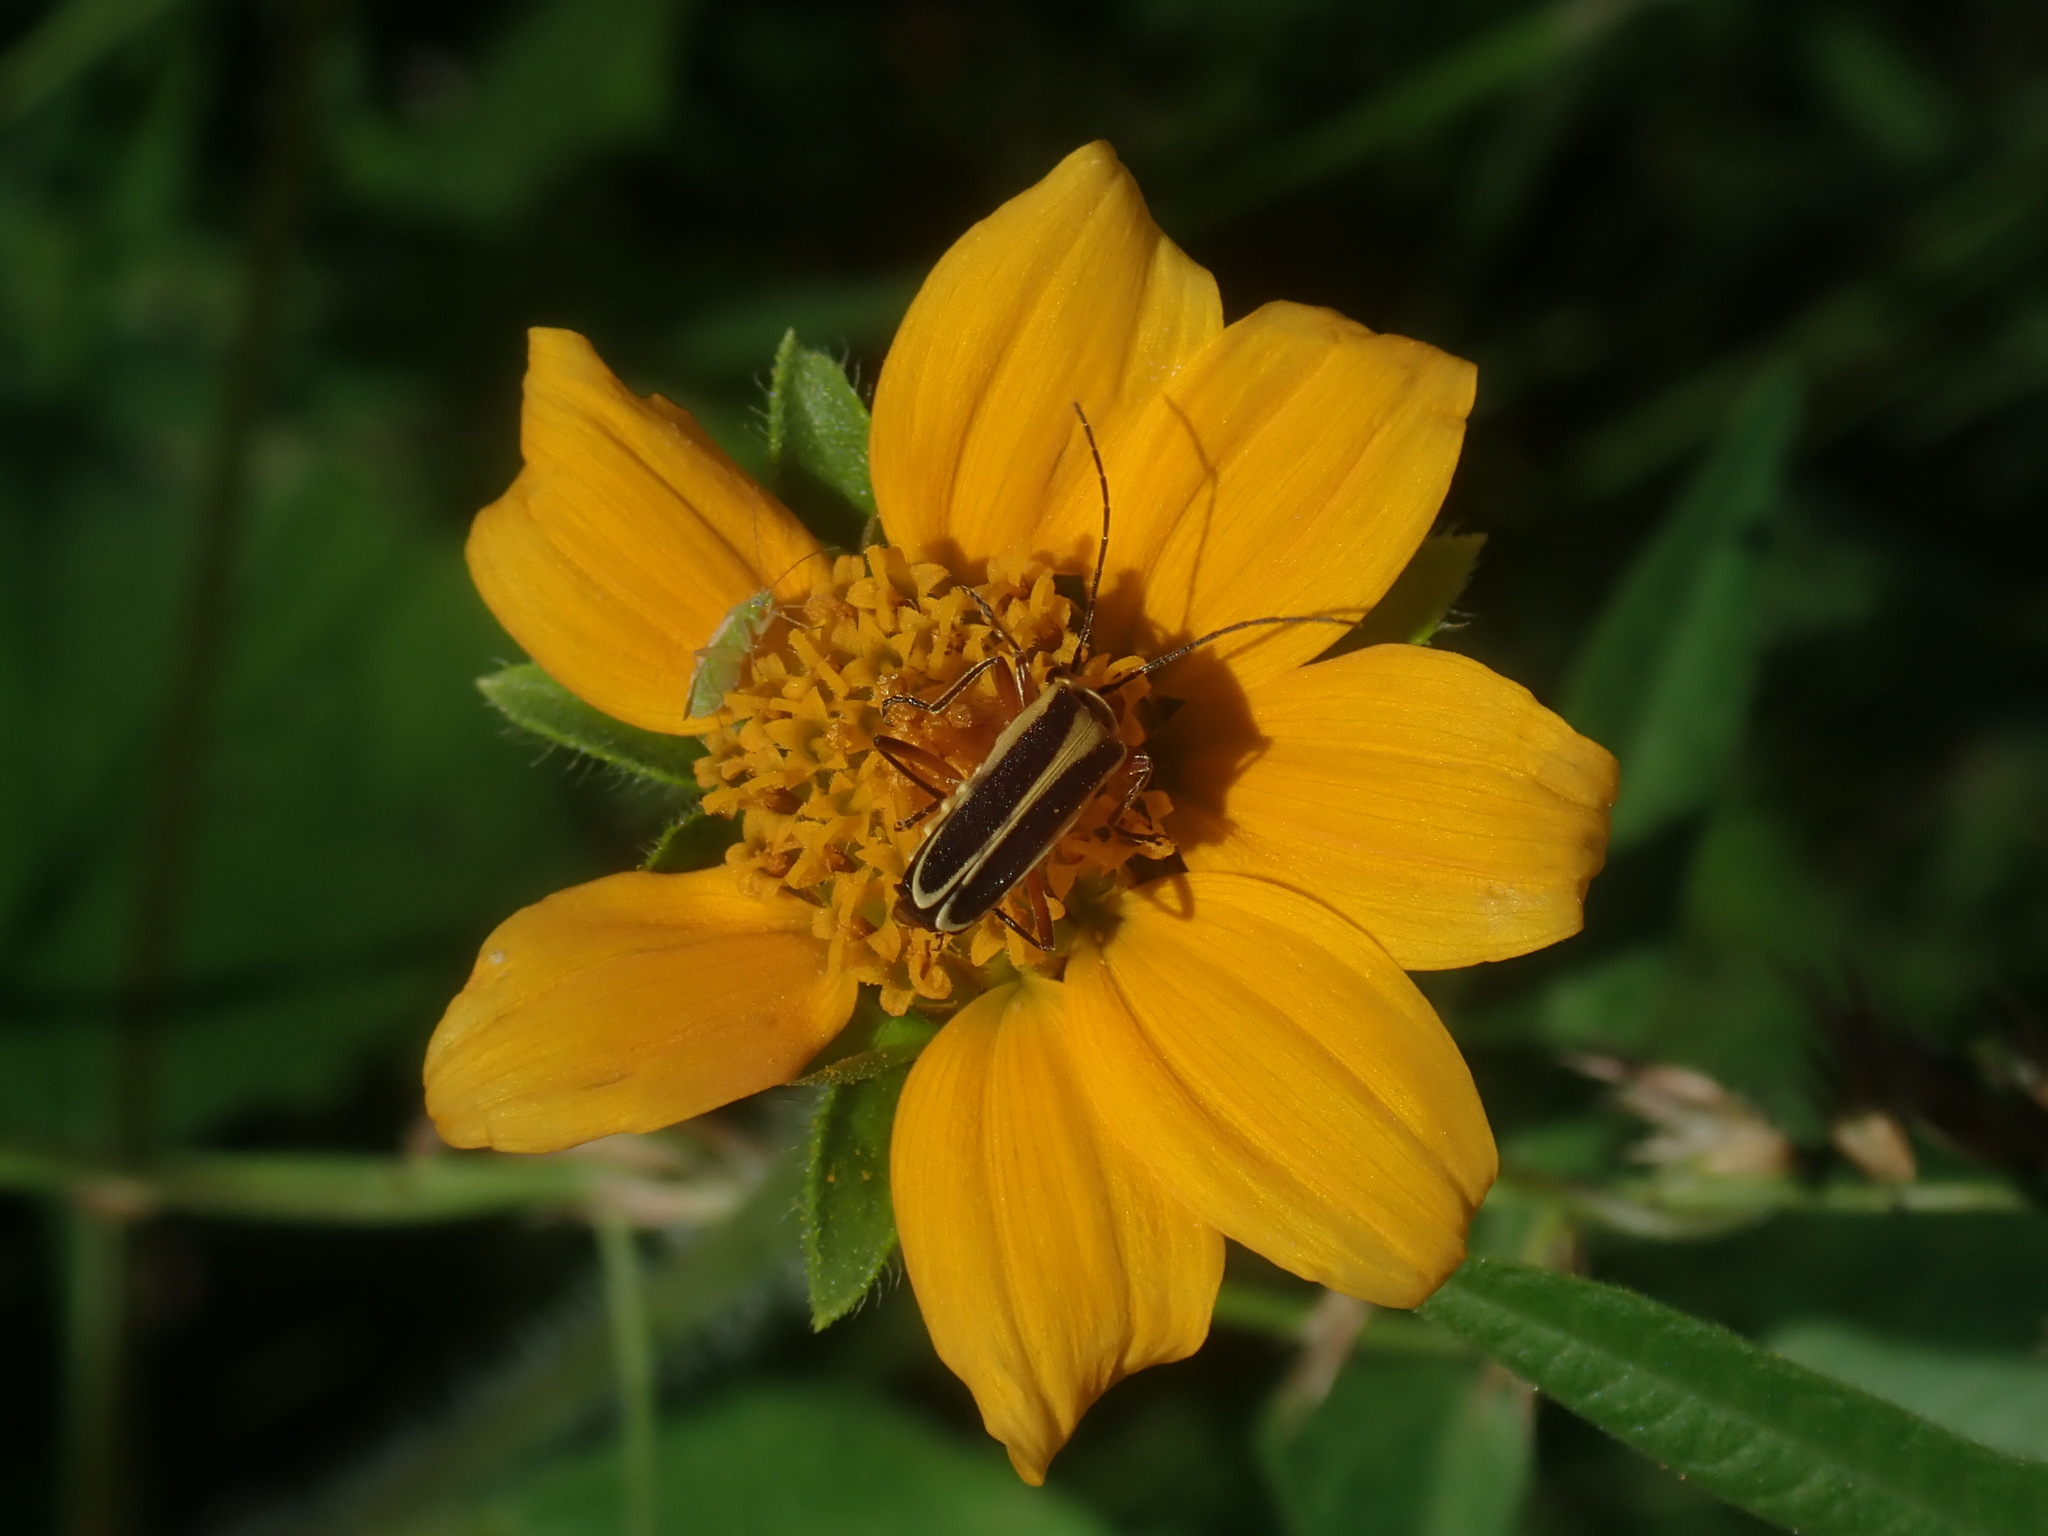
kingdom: Animalia
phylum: Arthropoda
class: Insecta
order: Coleoptera
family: Cantharidae
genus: Chauliognathus
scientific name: Chauliognathus lewisi
